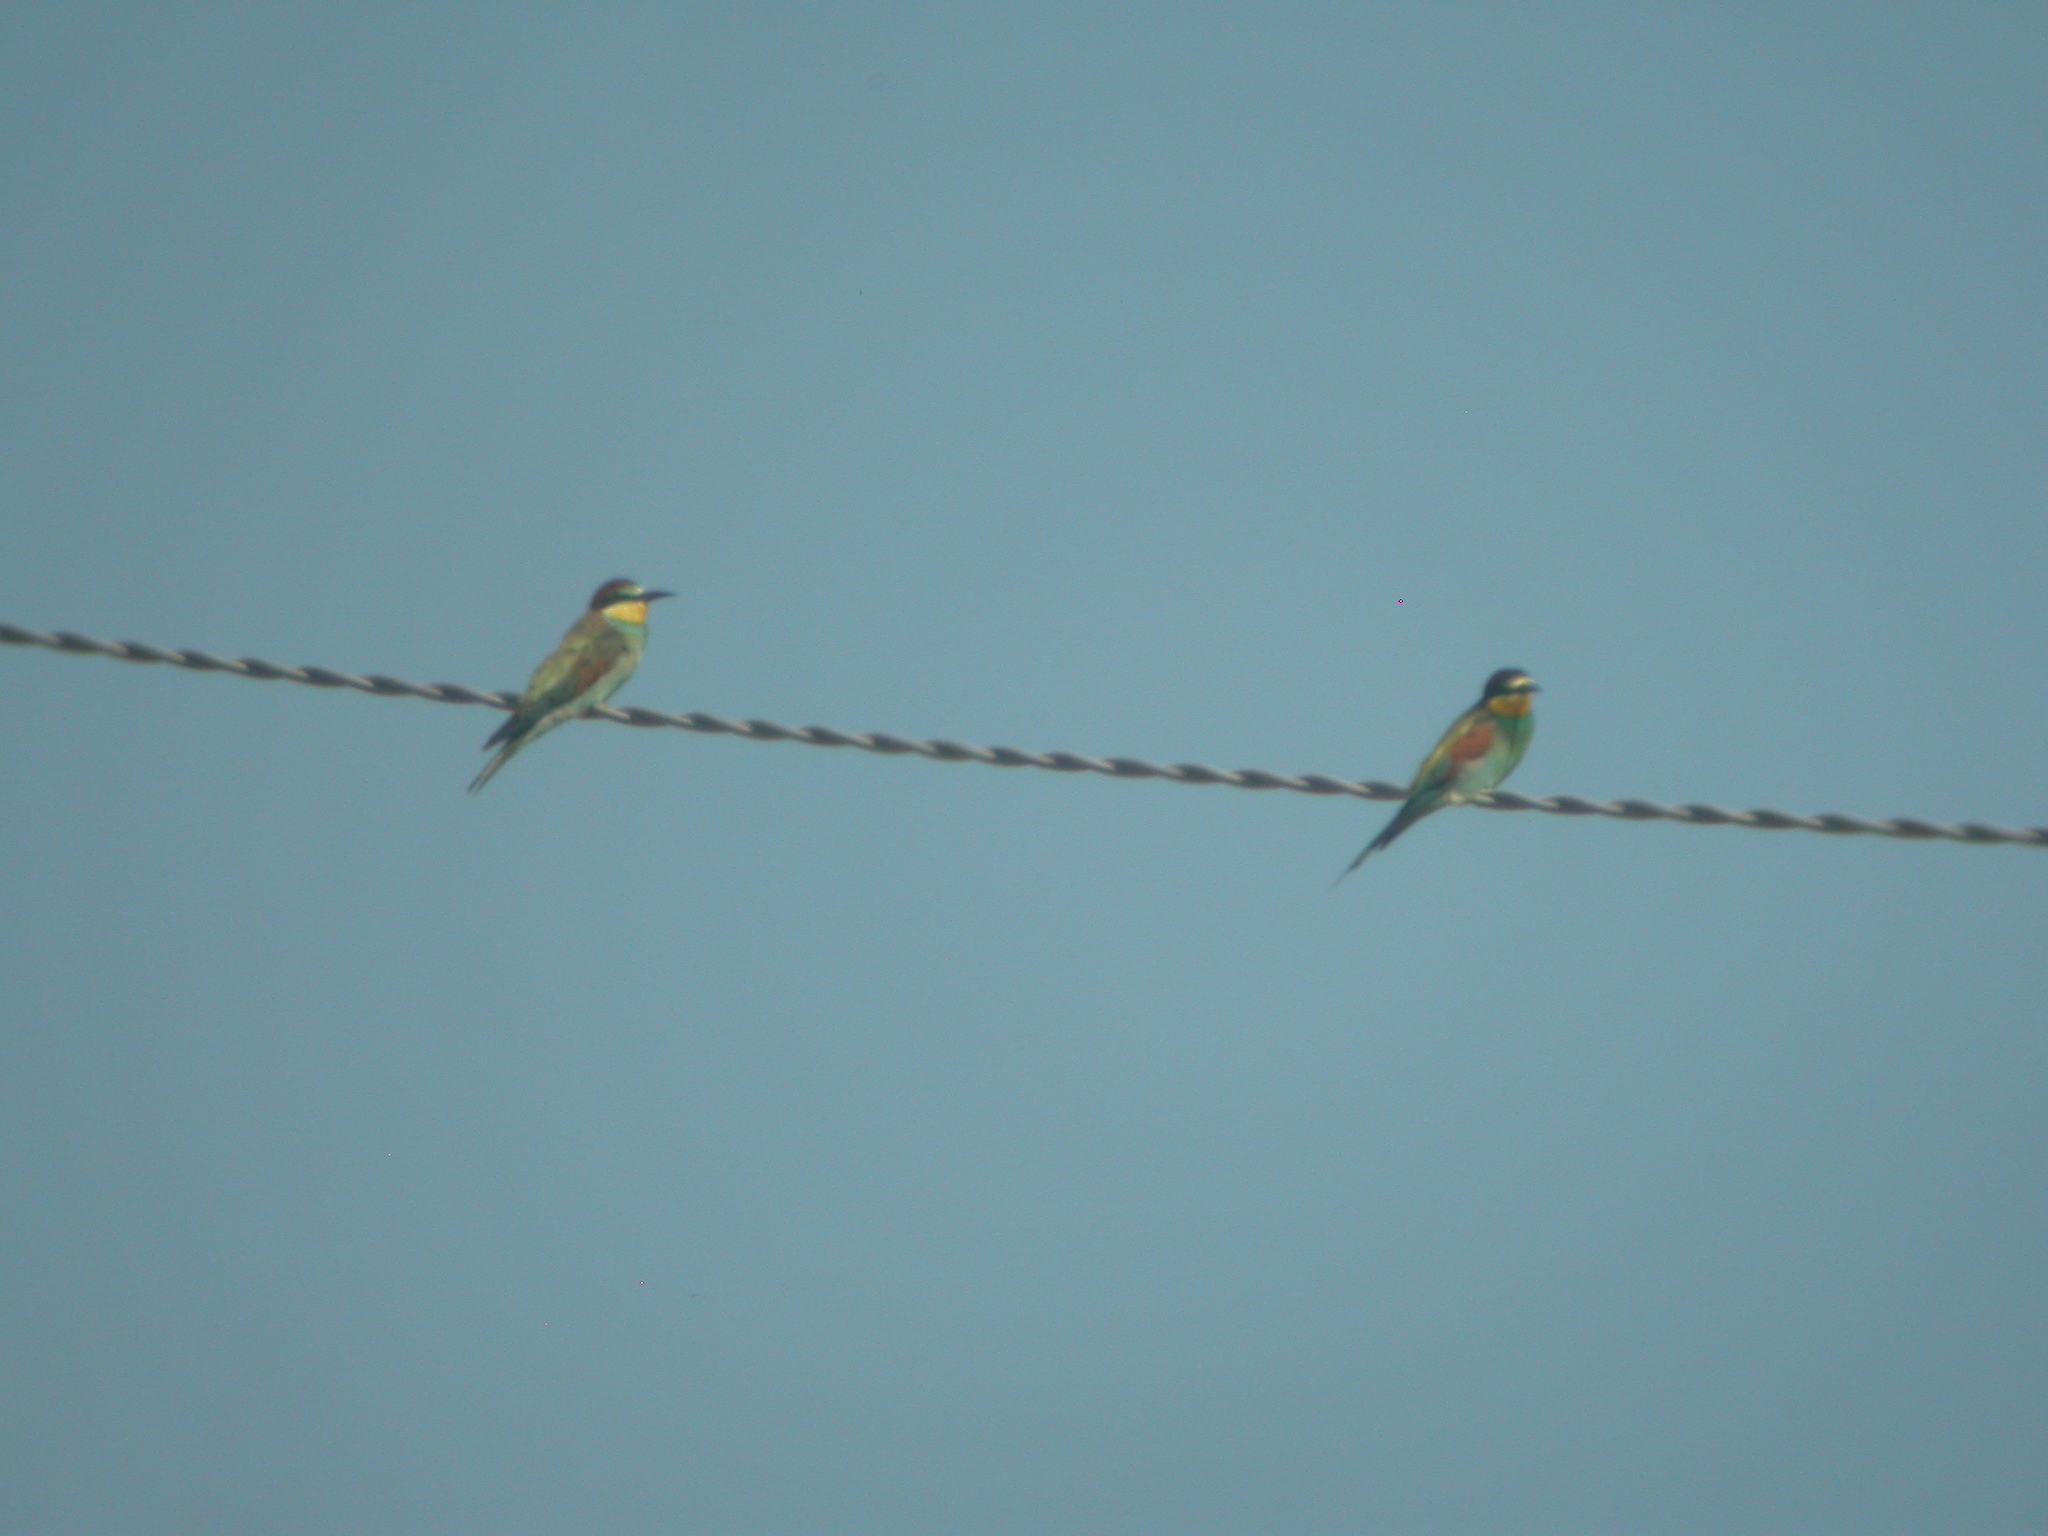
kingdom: Animalia
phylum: Chordata
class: Aves
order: Coraciiformes
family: Meropidae
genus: Merops
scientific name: Merops apiaster
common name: European bee-eater
